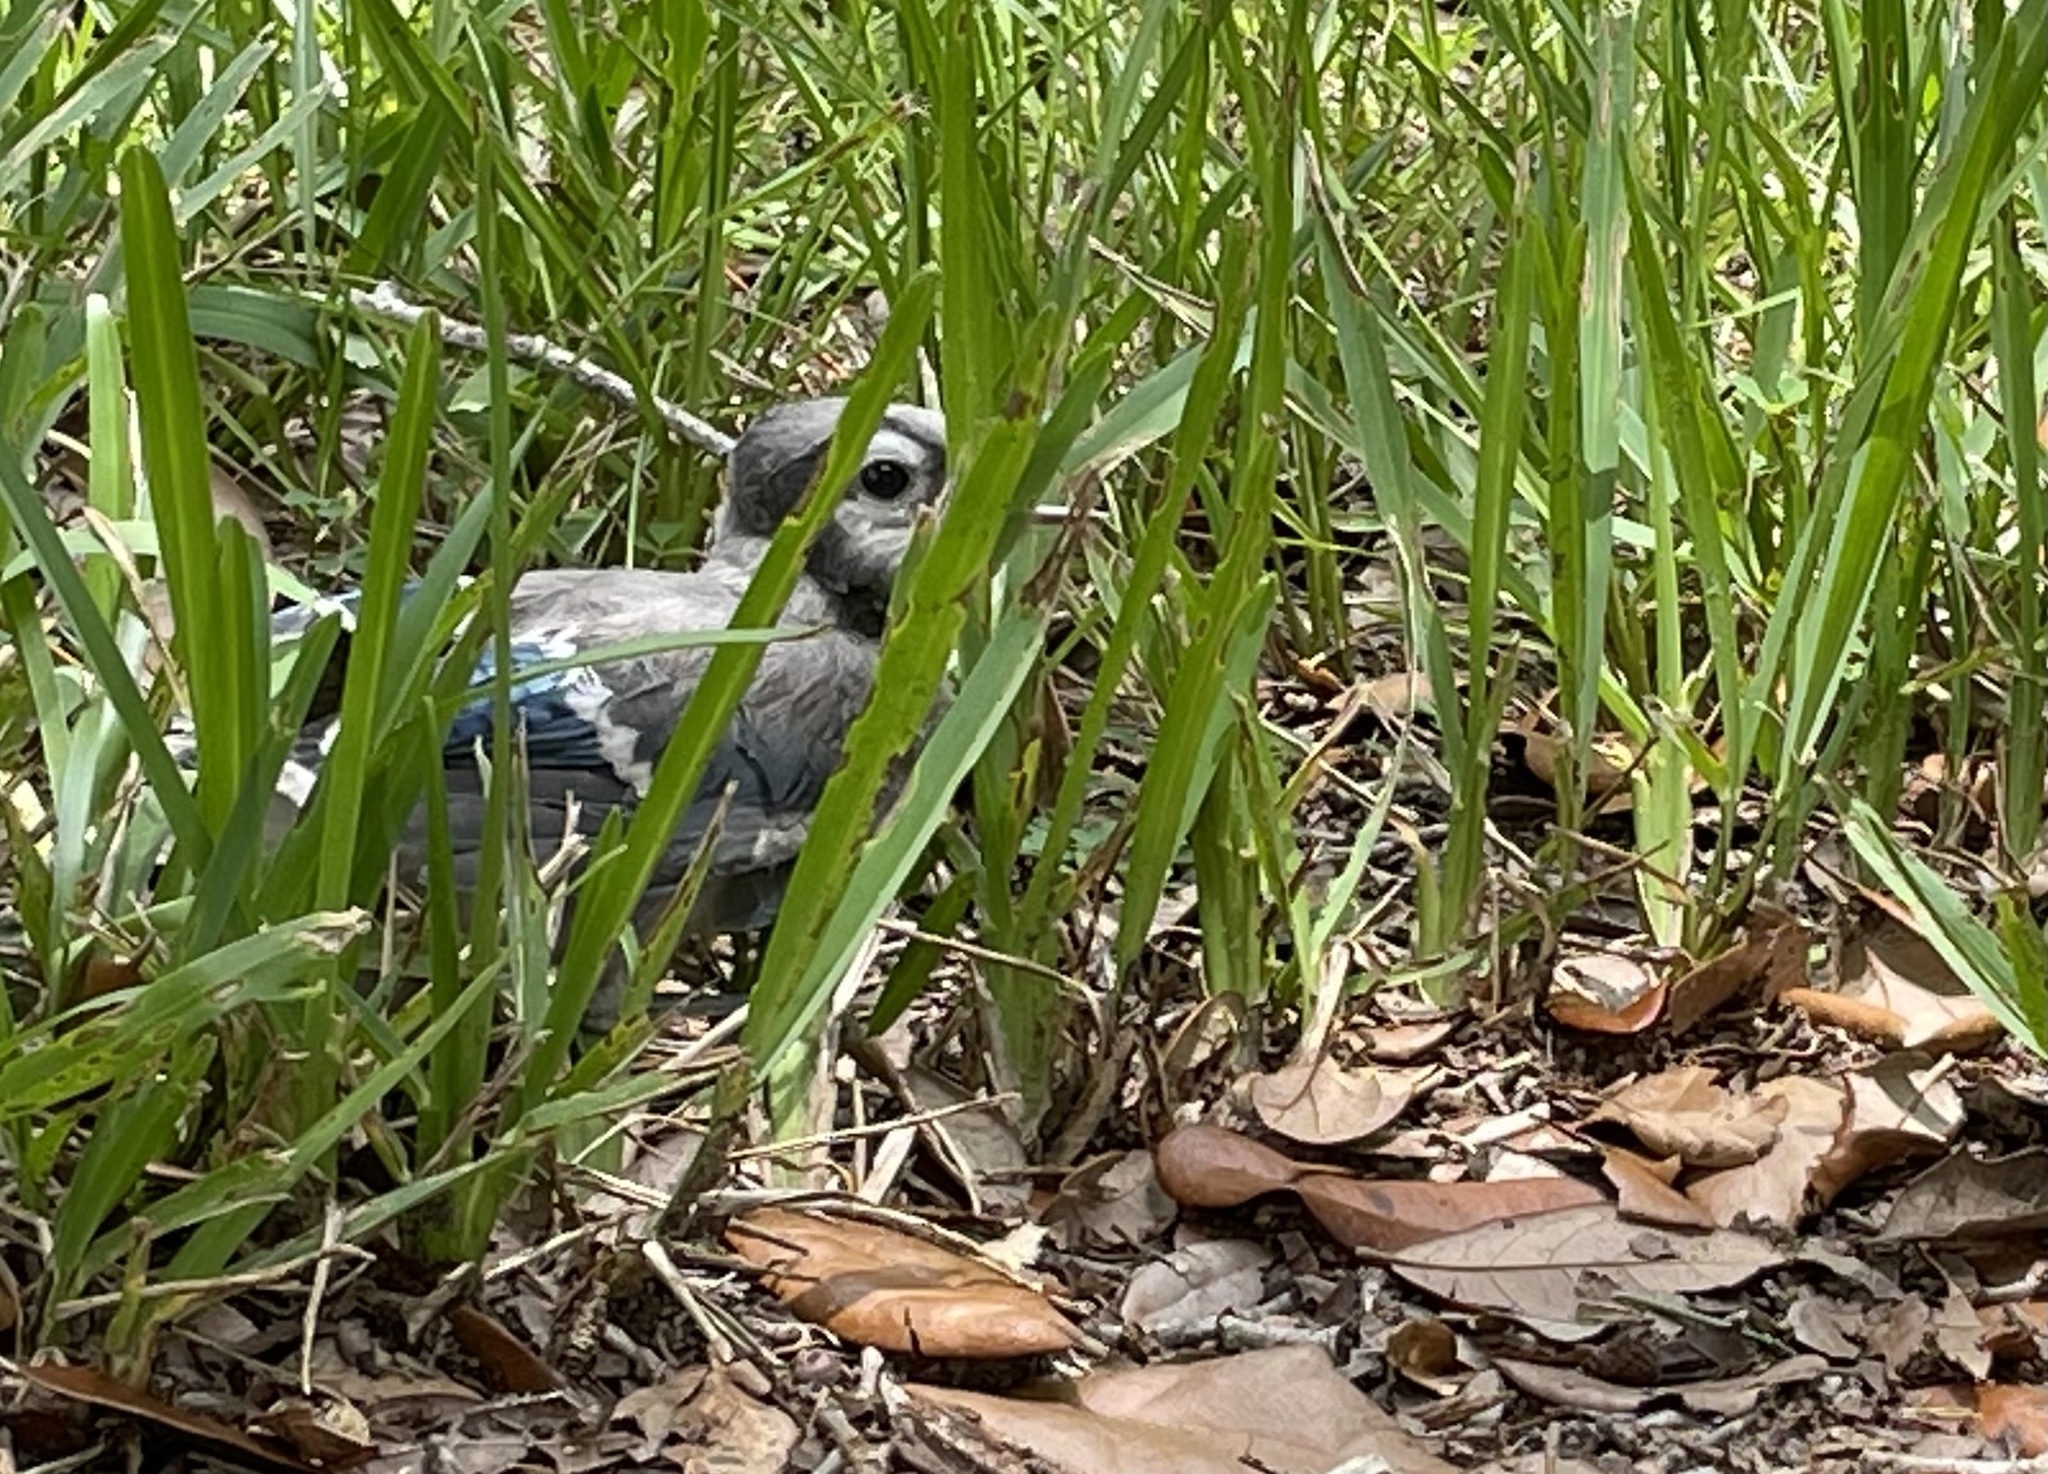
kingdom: Animalia
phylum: Chordata
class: Aves
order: Passeriformes
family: Corvidae
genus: Cyanocitta
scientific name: Cyanocitta cristata
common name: Blue jay
